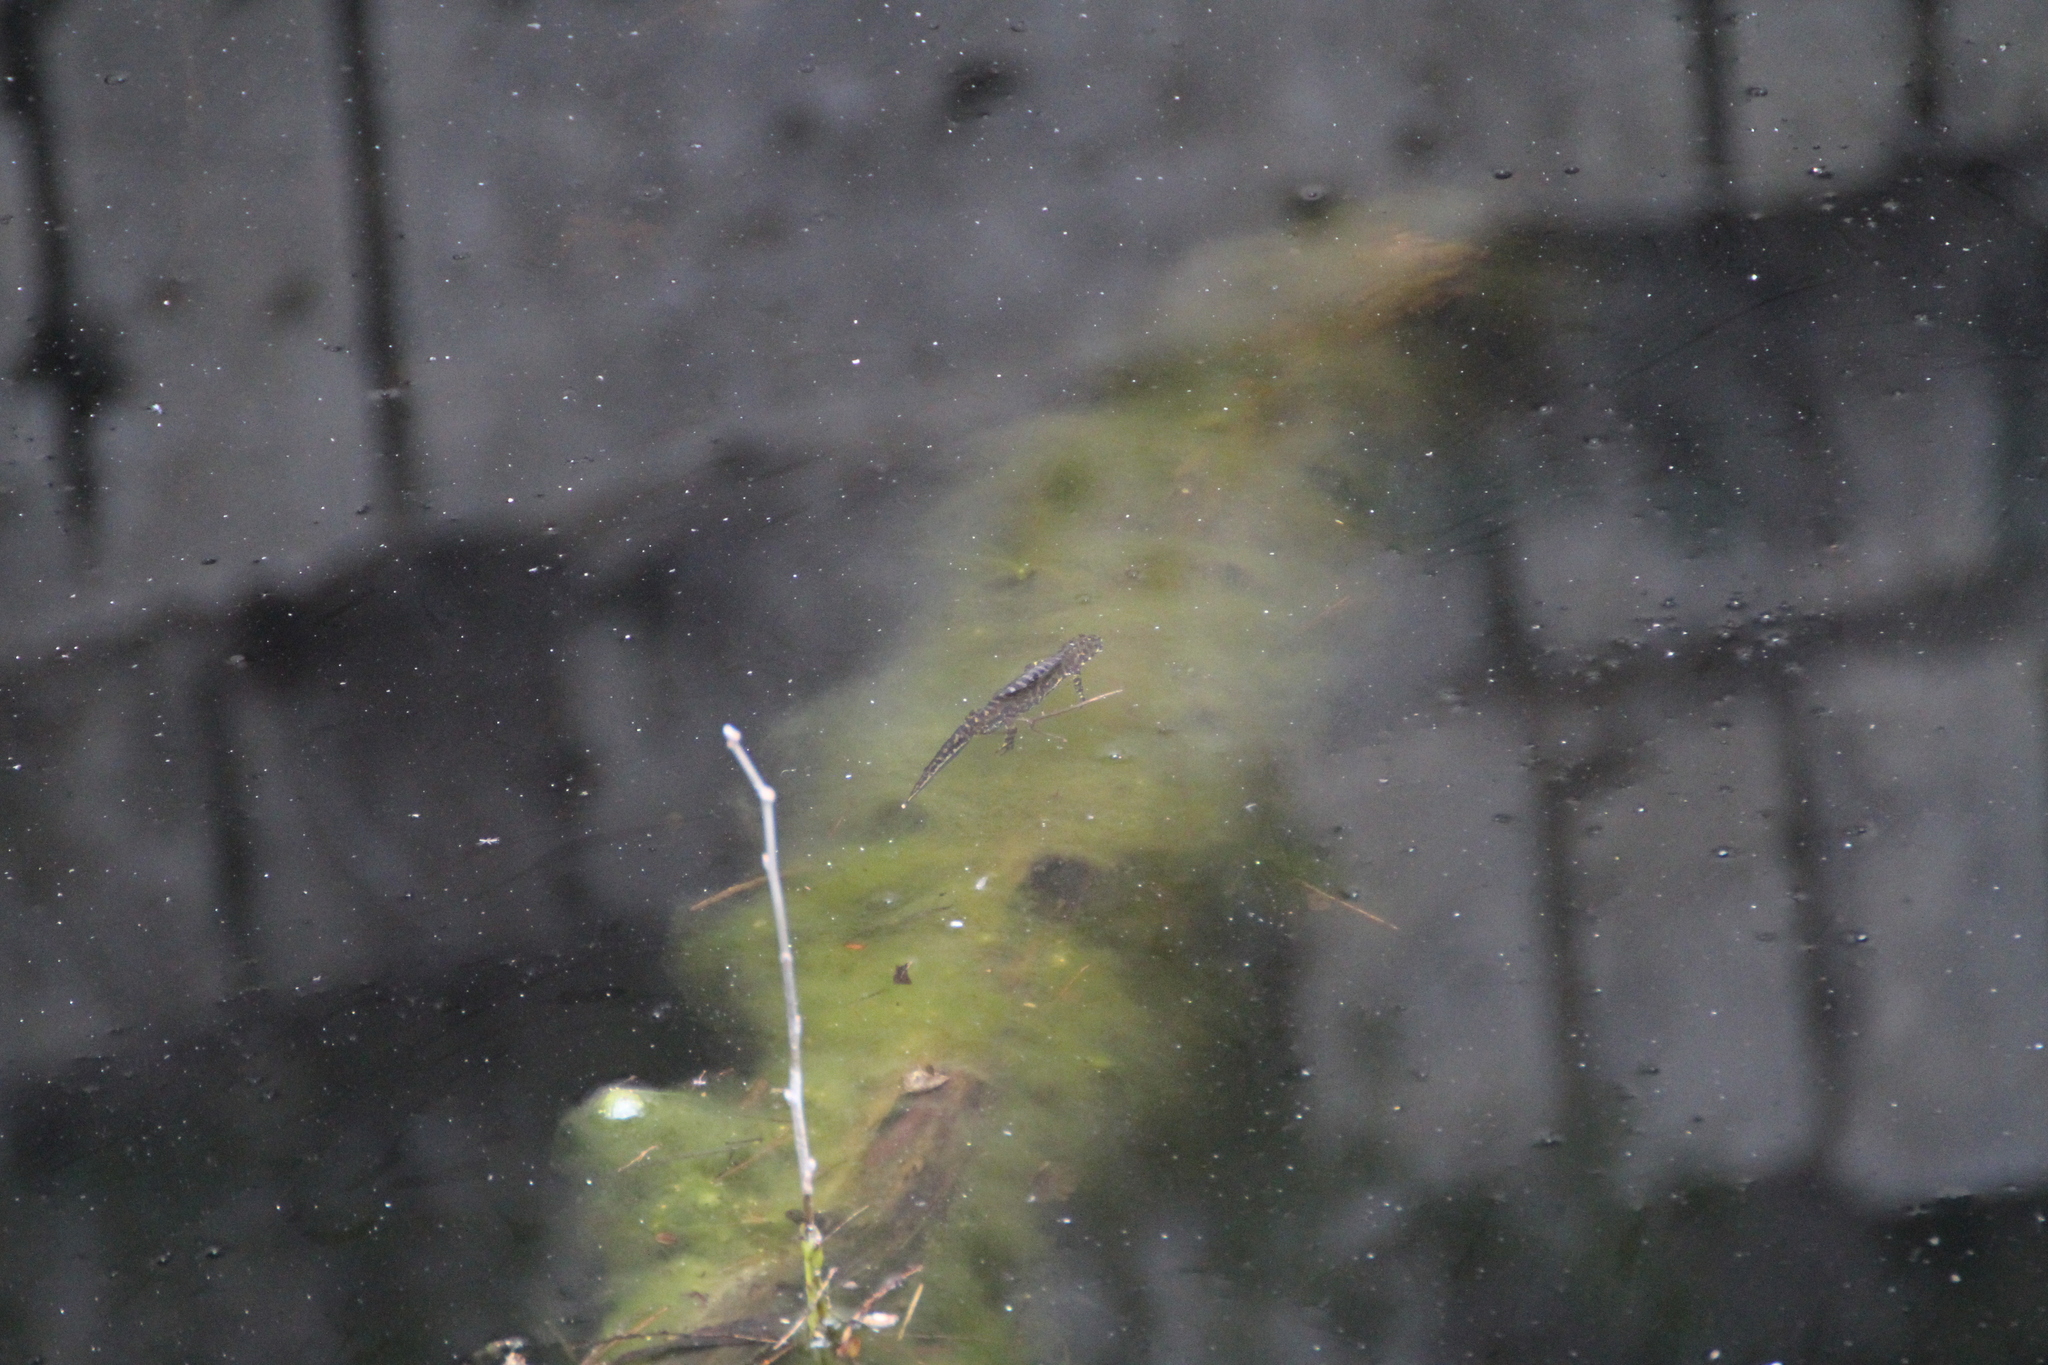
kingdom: Animalia
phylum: Chordata
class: Amphibia
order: Caudata
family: Salamandridae
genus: Triturus
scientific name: Triturus marmoratus
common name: Marbled newt
